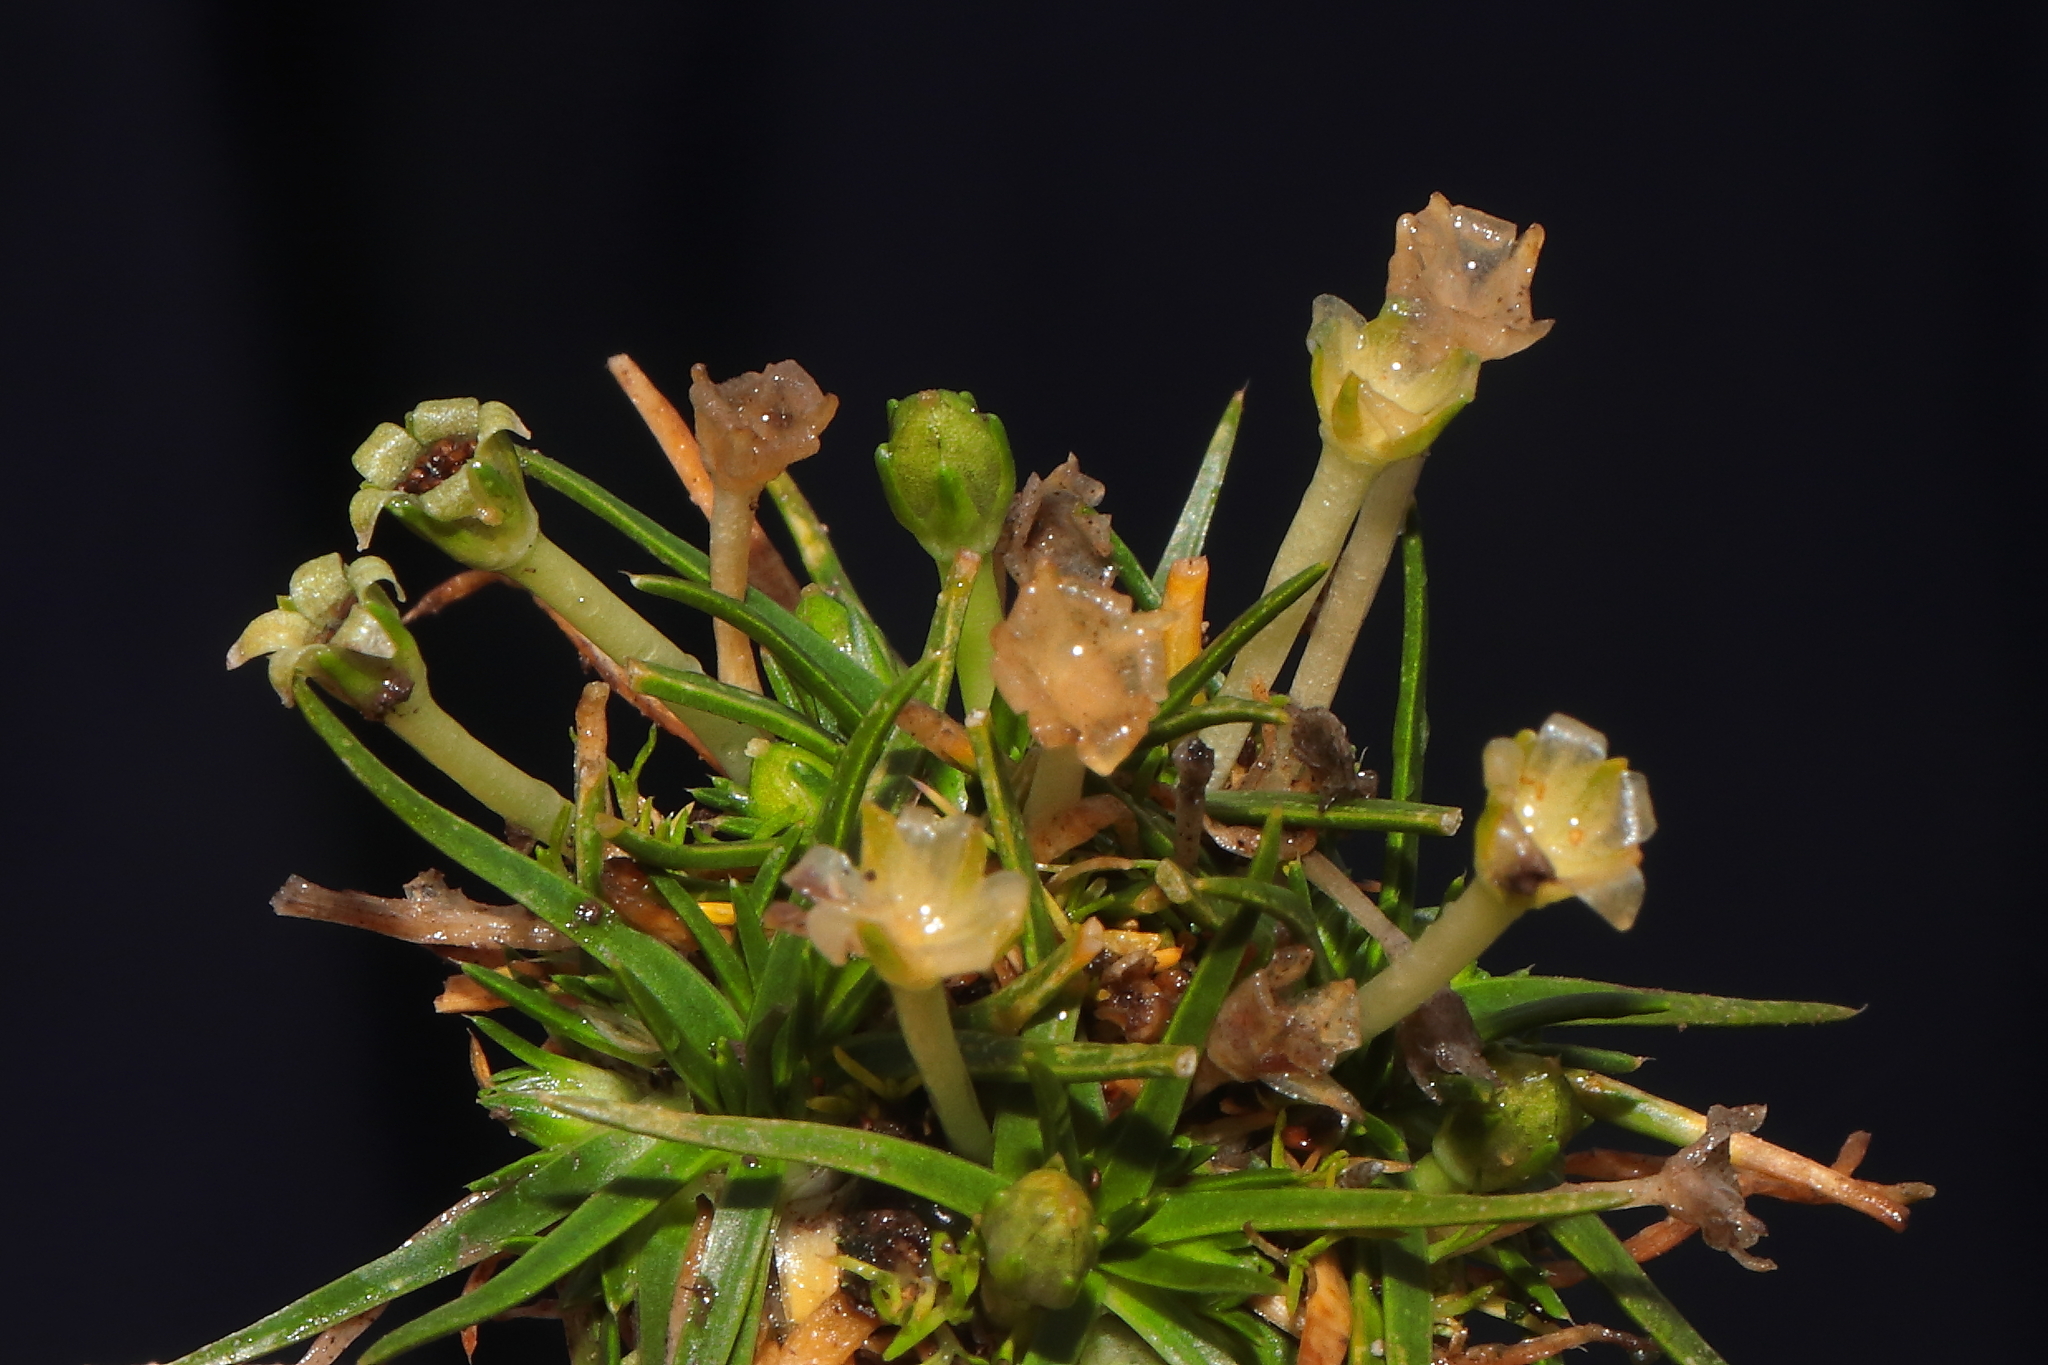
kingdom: Plantae
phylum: Tracheophyta
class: Magnoliopsida
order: Caryophyllales
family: Caryophyllaceae
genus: Colobanthus
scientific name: Colobanthus quitensis
